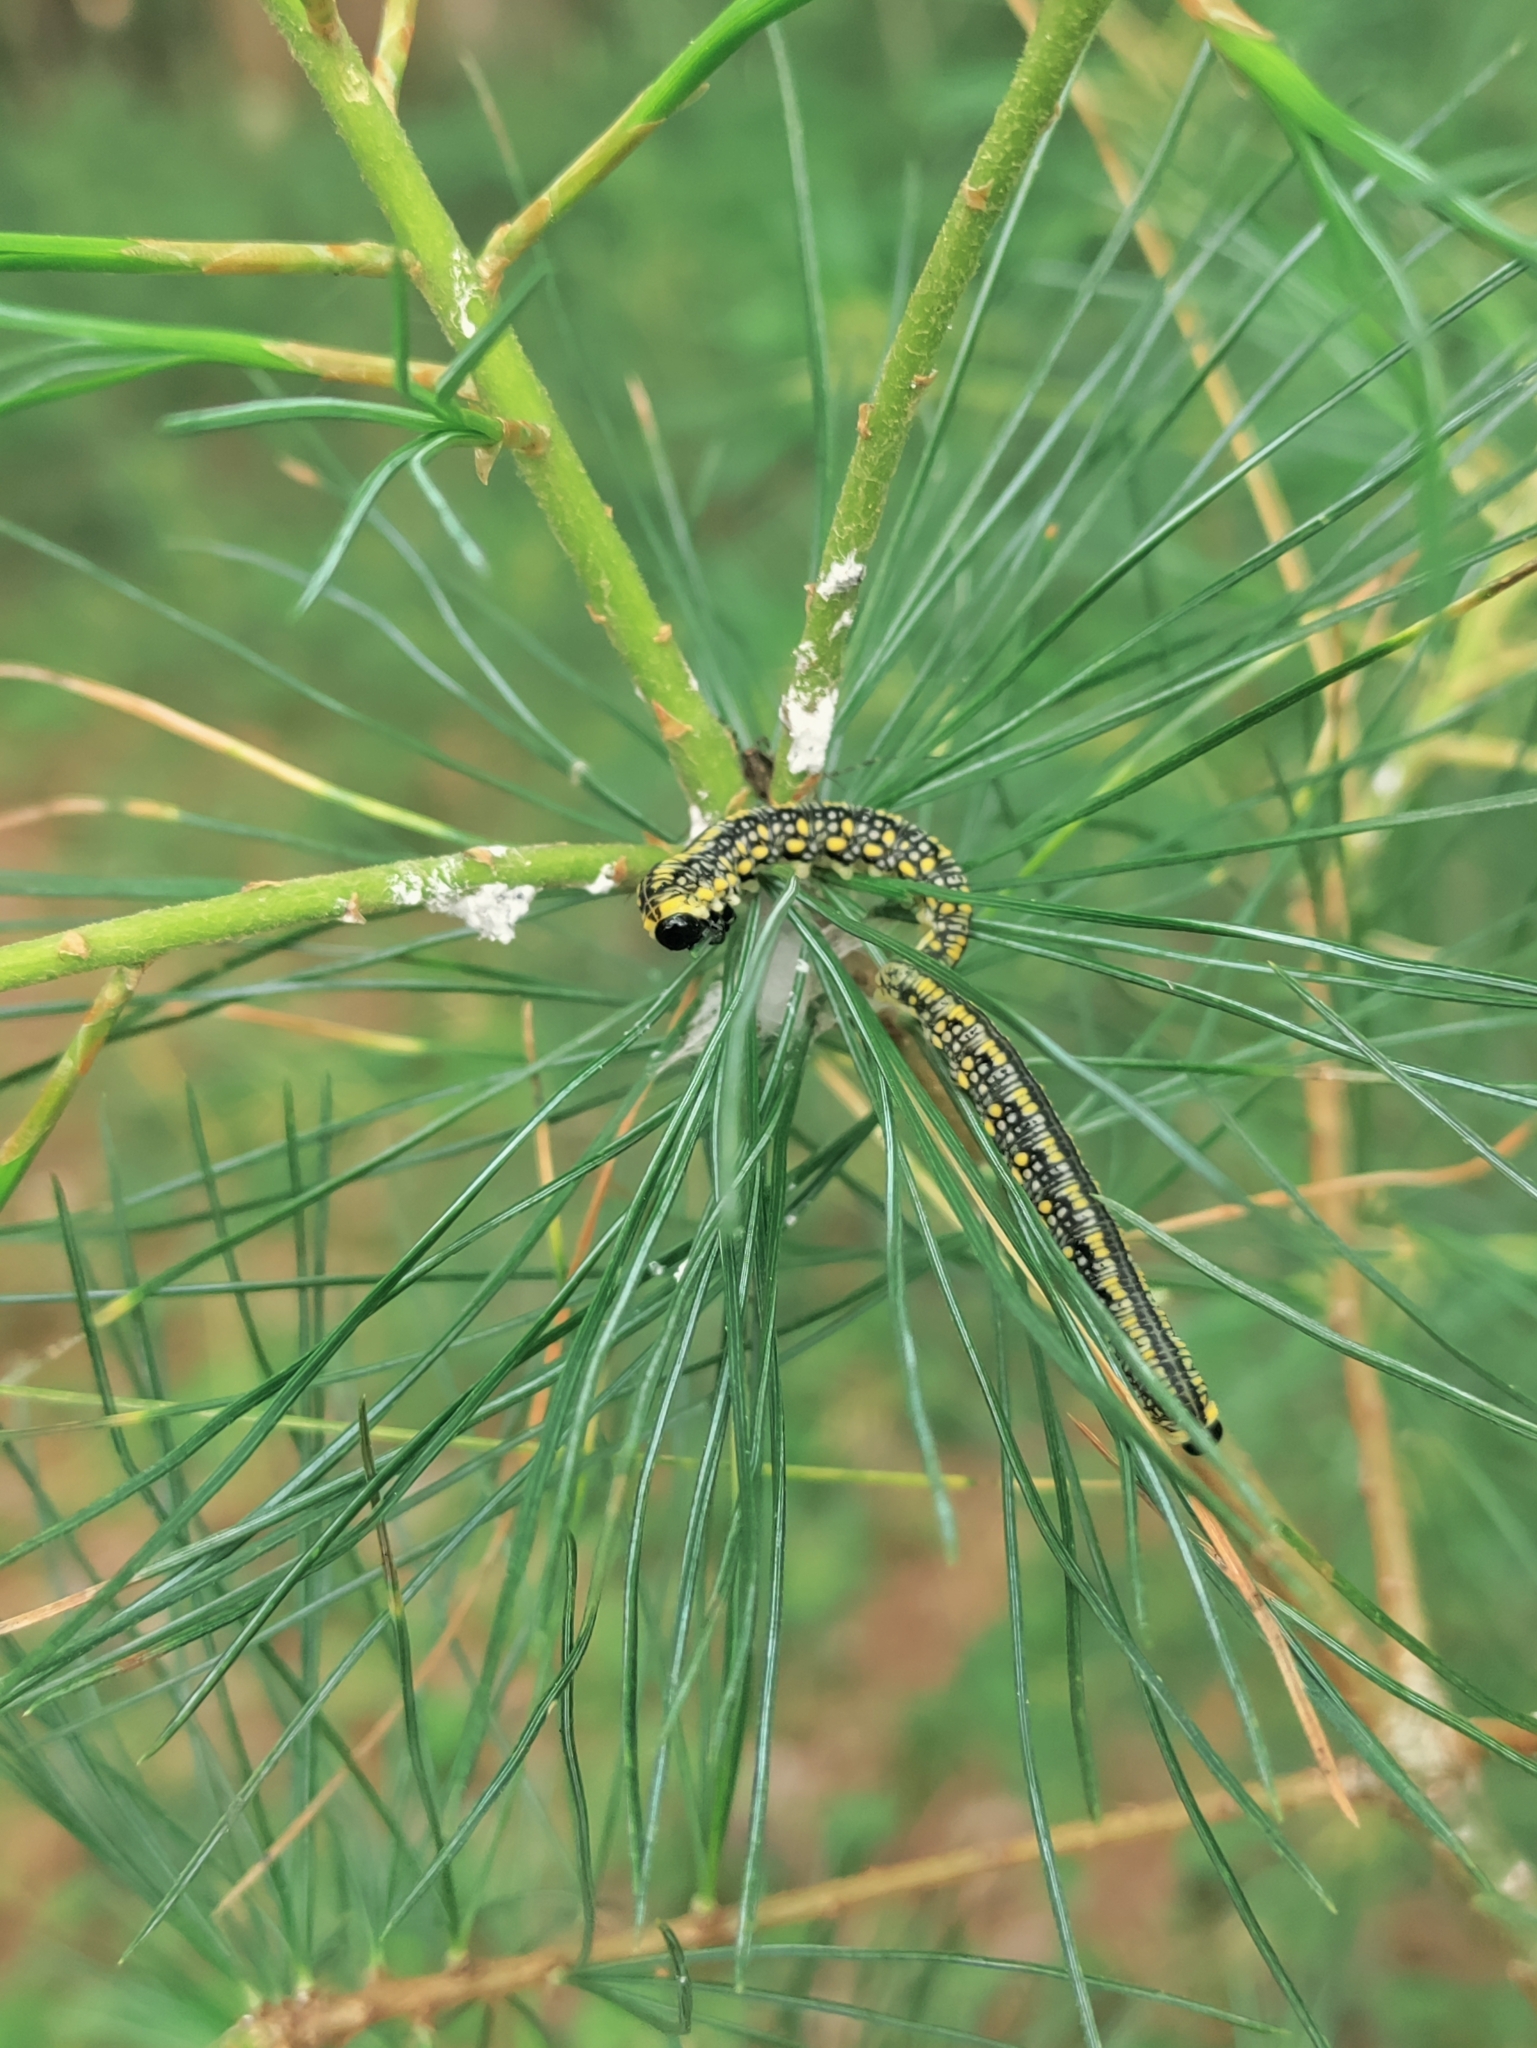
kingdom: Animalia
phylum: Arthropoda
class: Insecta
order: Hymenoptera
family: Diprionidae
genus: Diprion
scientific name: Diprion similis
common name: Pine sawfly
